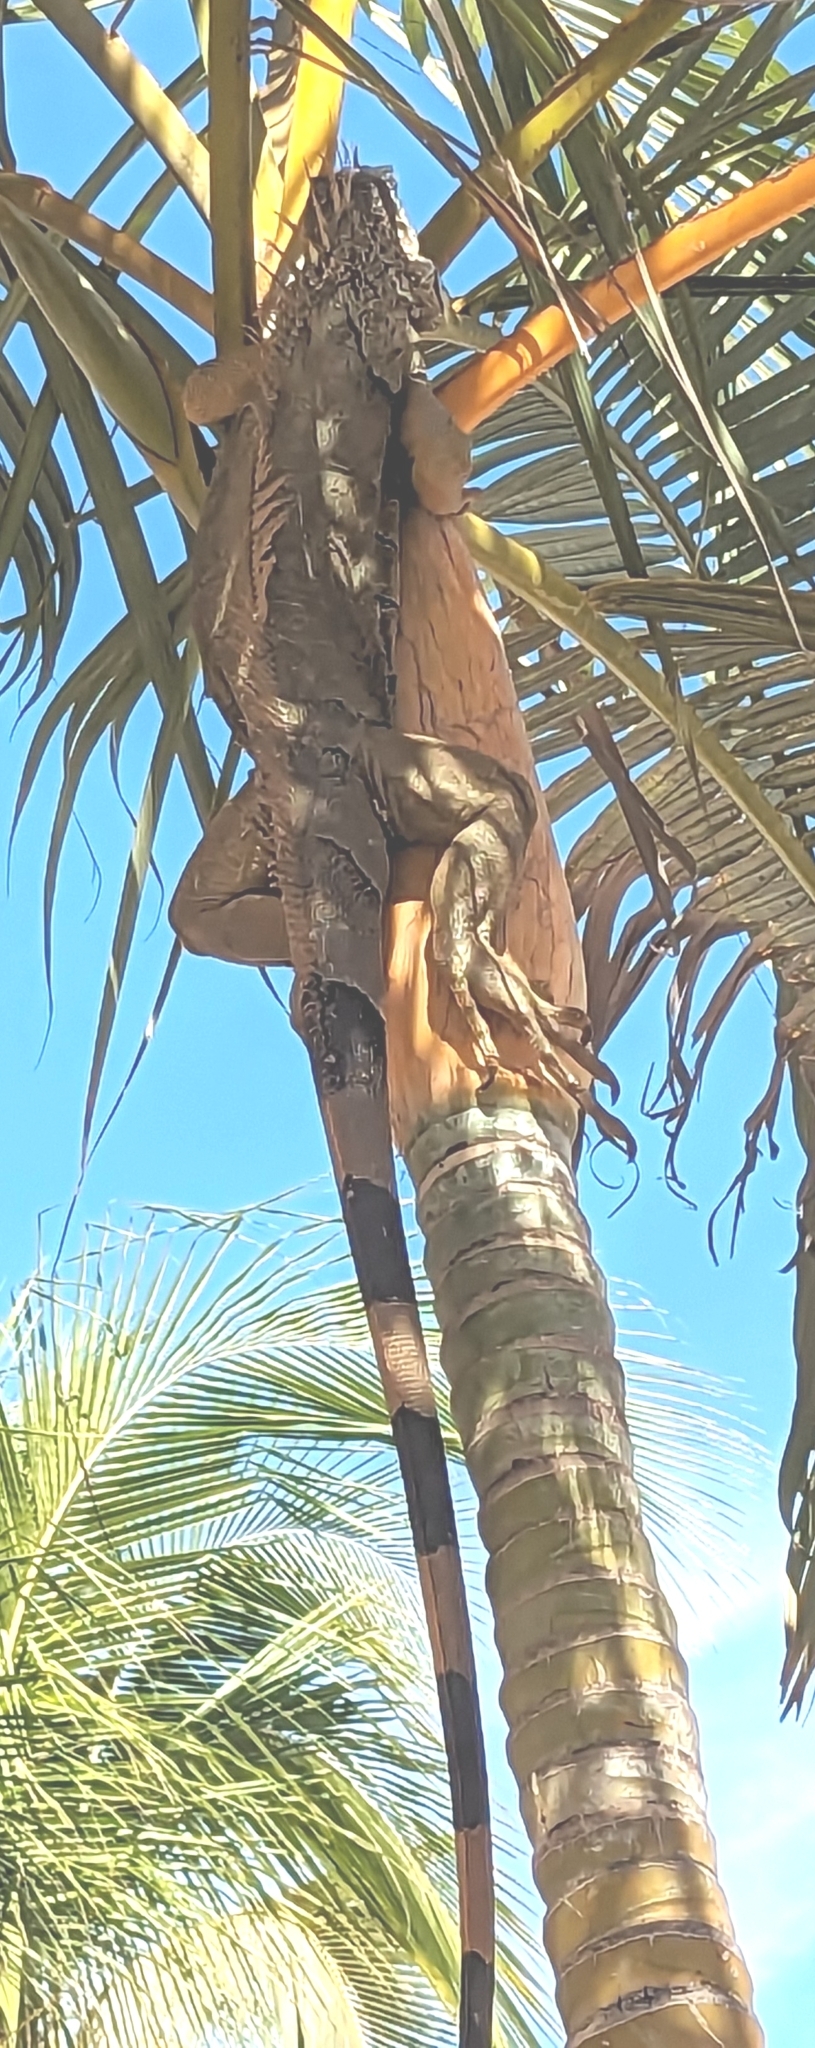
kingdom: Animalia
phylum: Chordata
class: Squamata
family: Iguanidae
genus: Iguana
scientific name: Iguana iguana
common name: Green iguana
